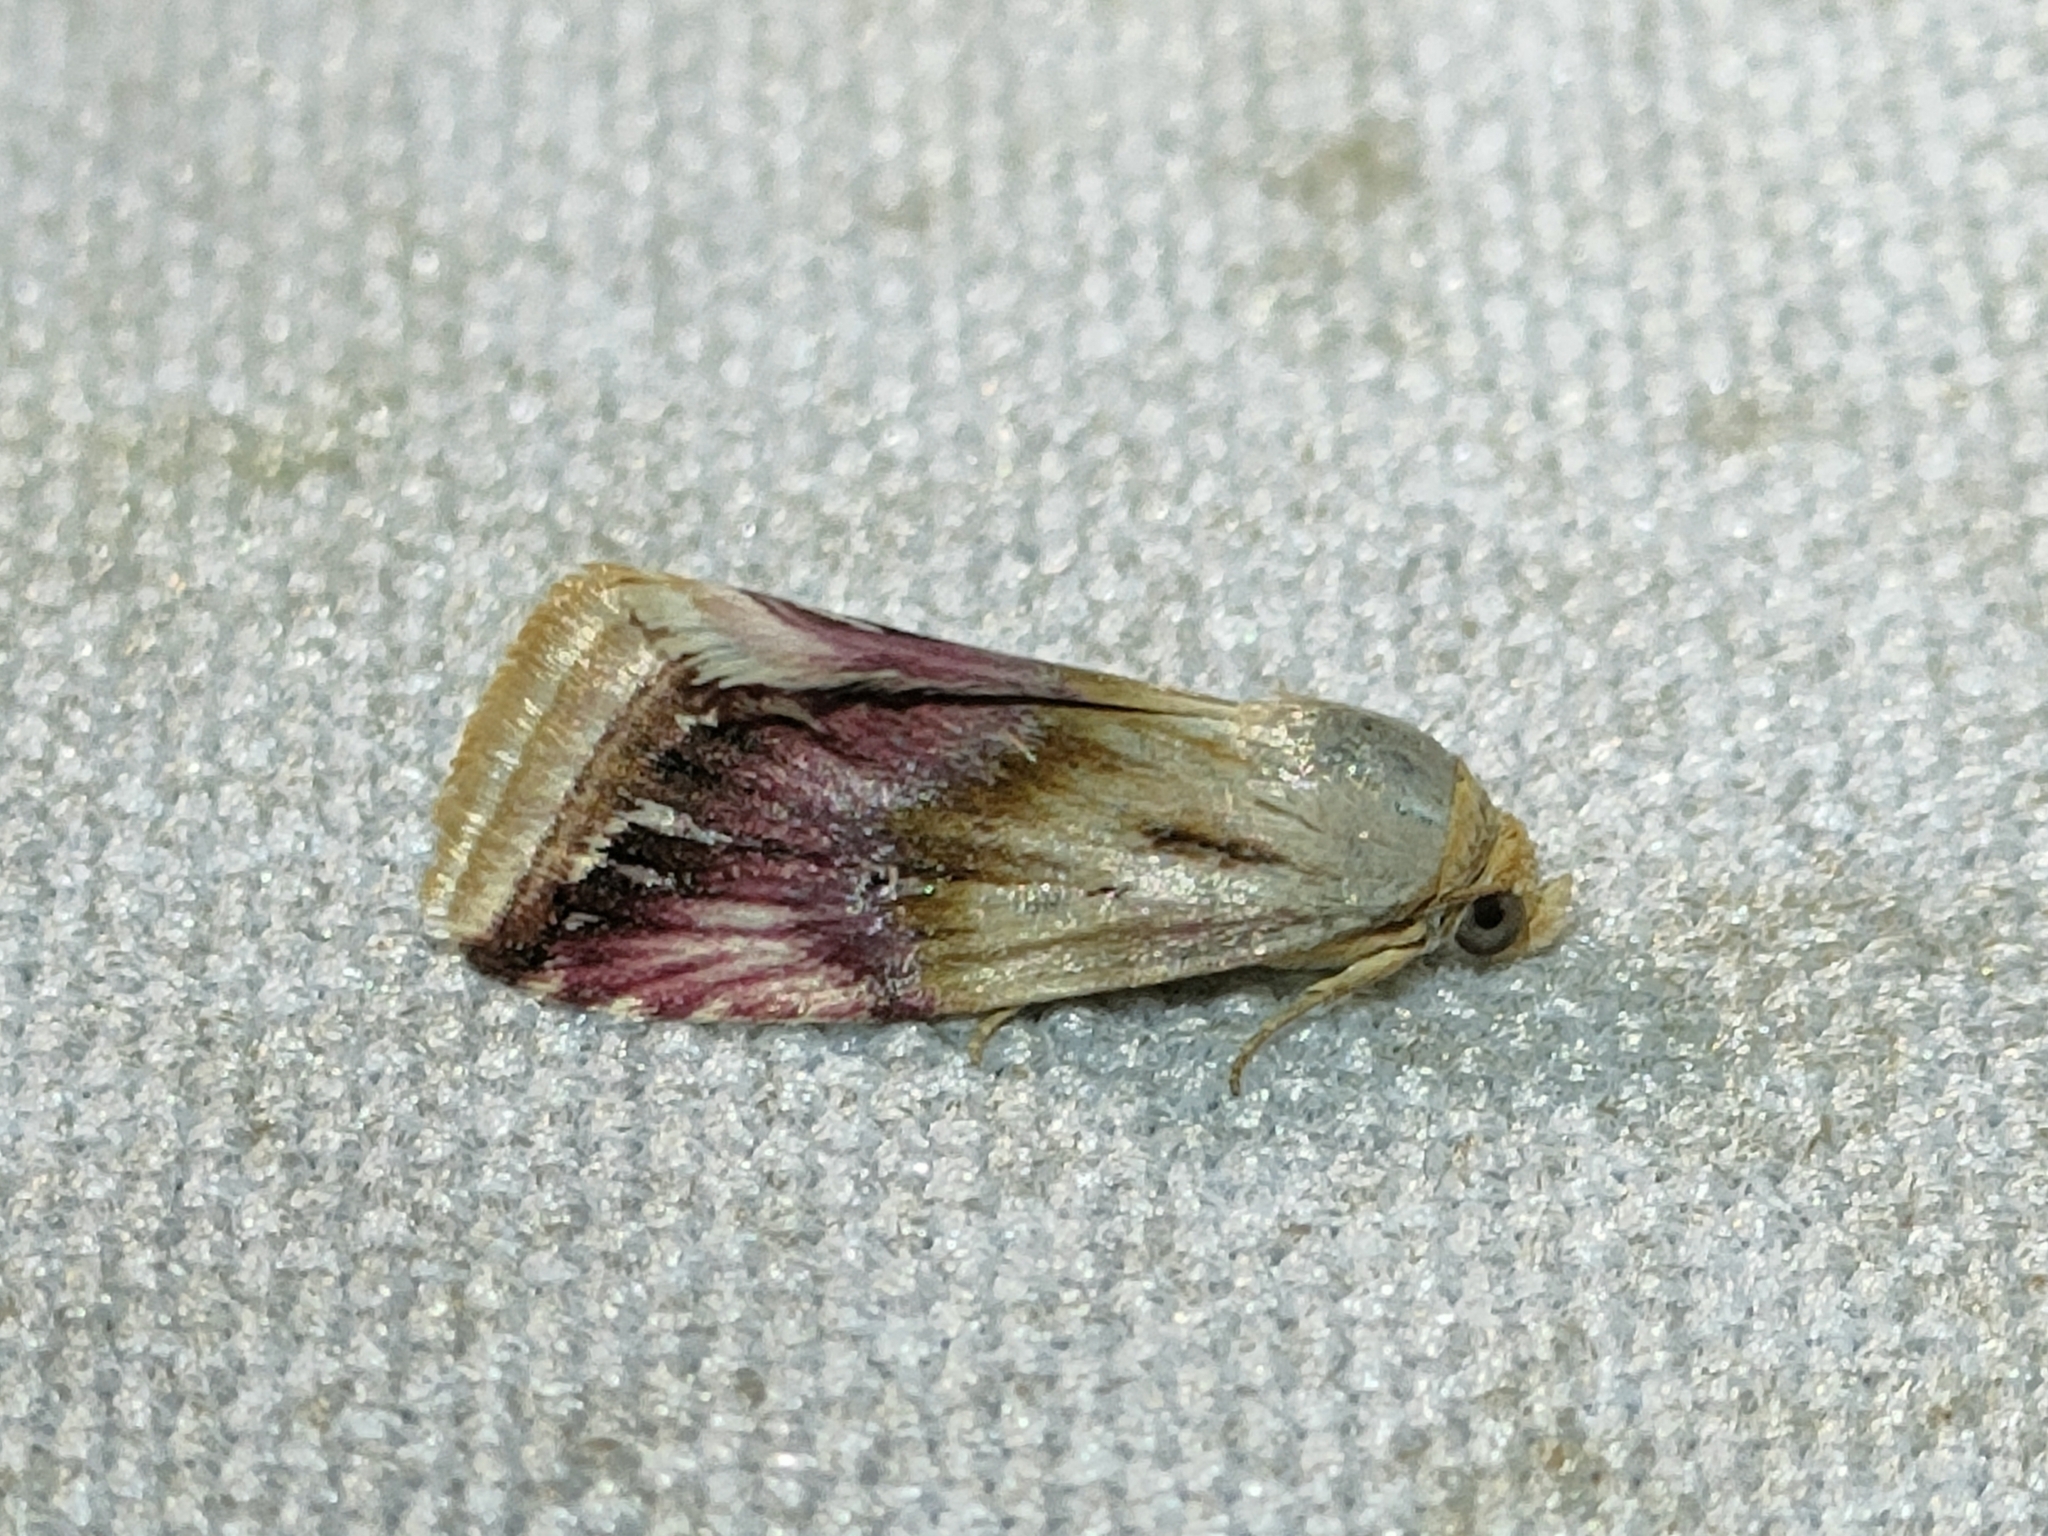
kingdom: Animalia
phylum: Arthropoda
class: Insecta
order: Lepidoptera
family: Noctuidae
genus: Eublemma
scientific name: Eublemma ostrina
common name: Purple marbled
